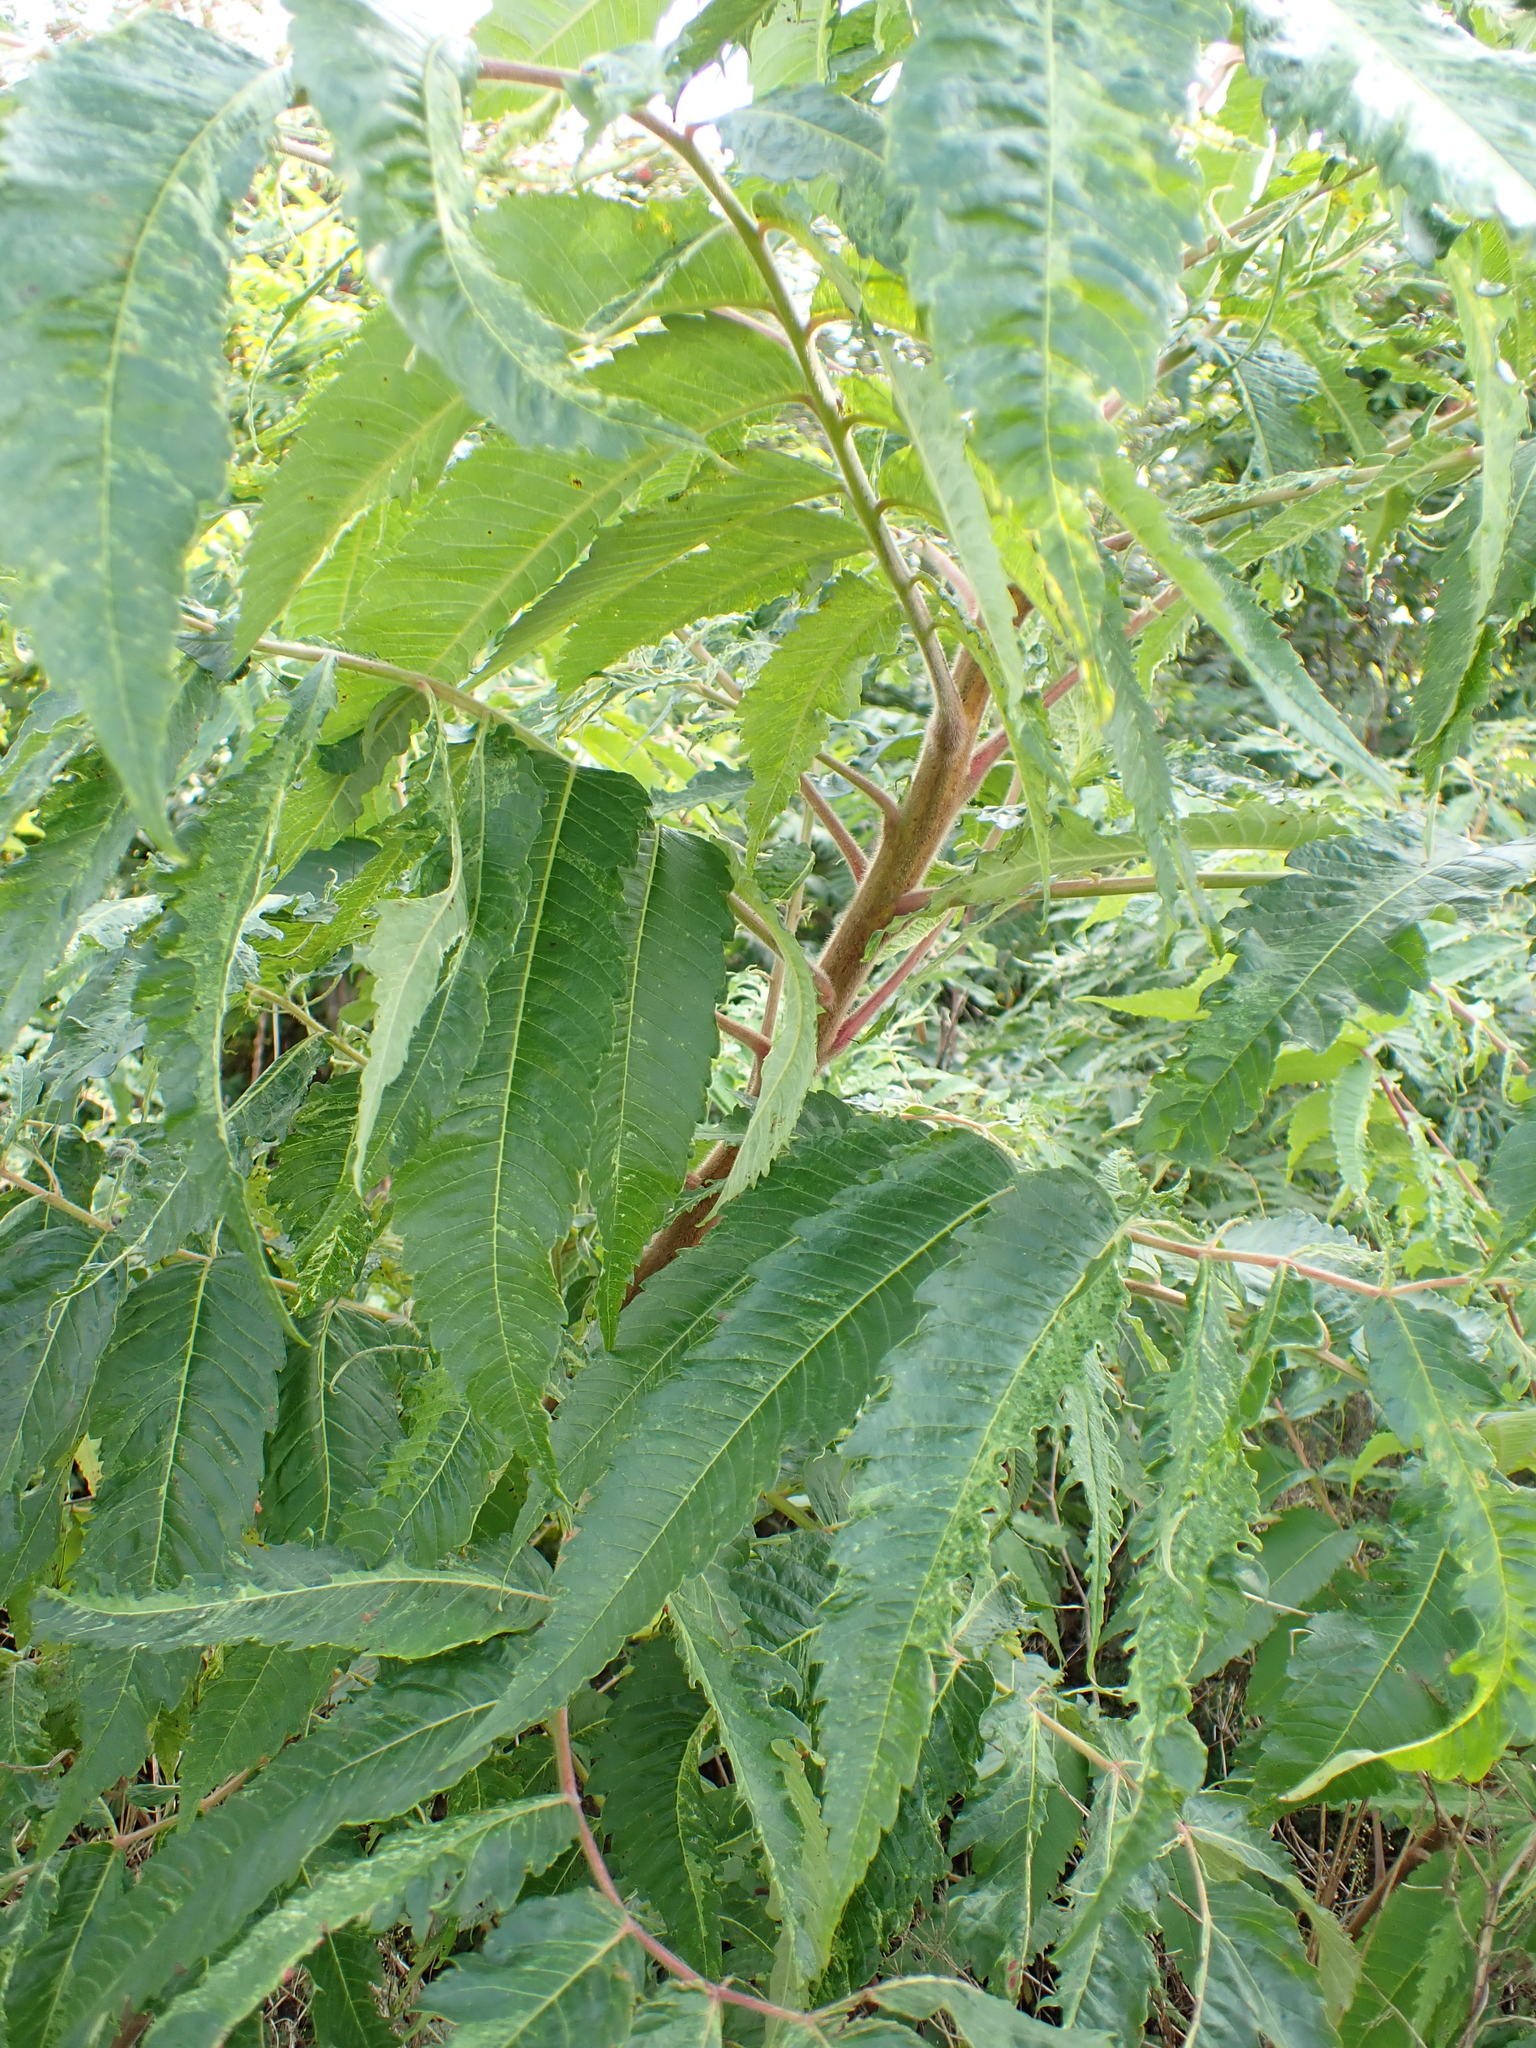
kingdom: Plantae
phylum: Tracheophyta
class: Magnoliopsida
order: Sapindales
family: Anacardiaceae
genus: Rhus
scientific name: Rhus typhina
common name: Staghorn sumac
